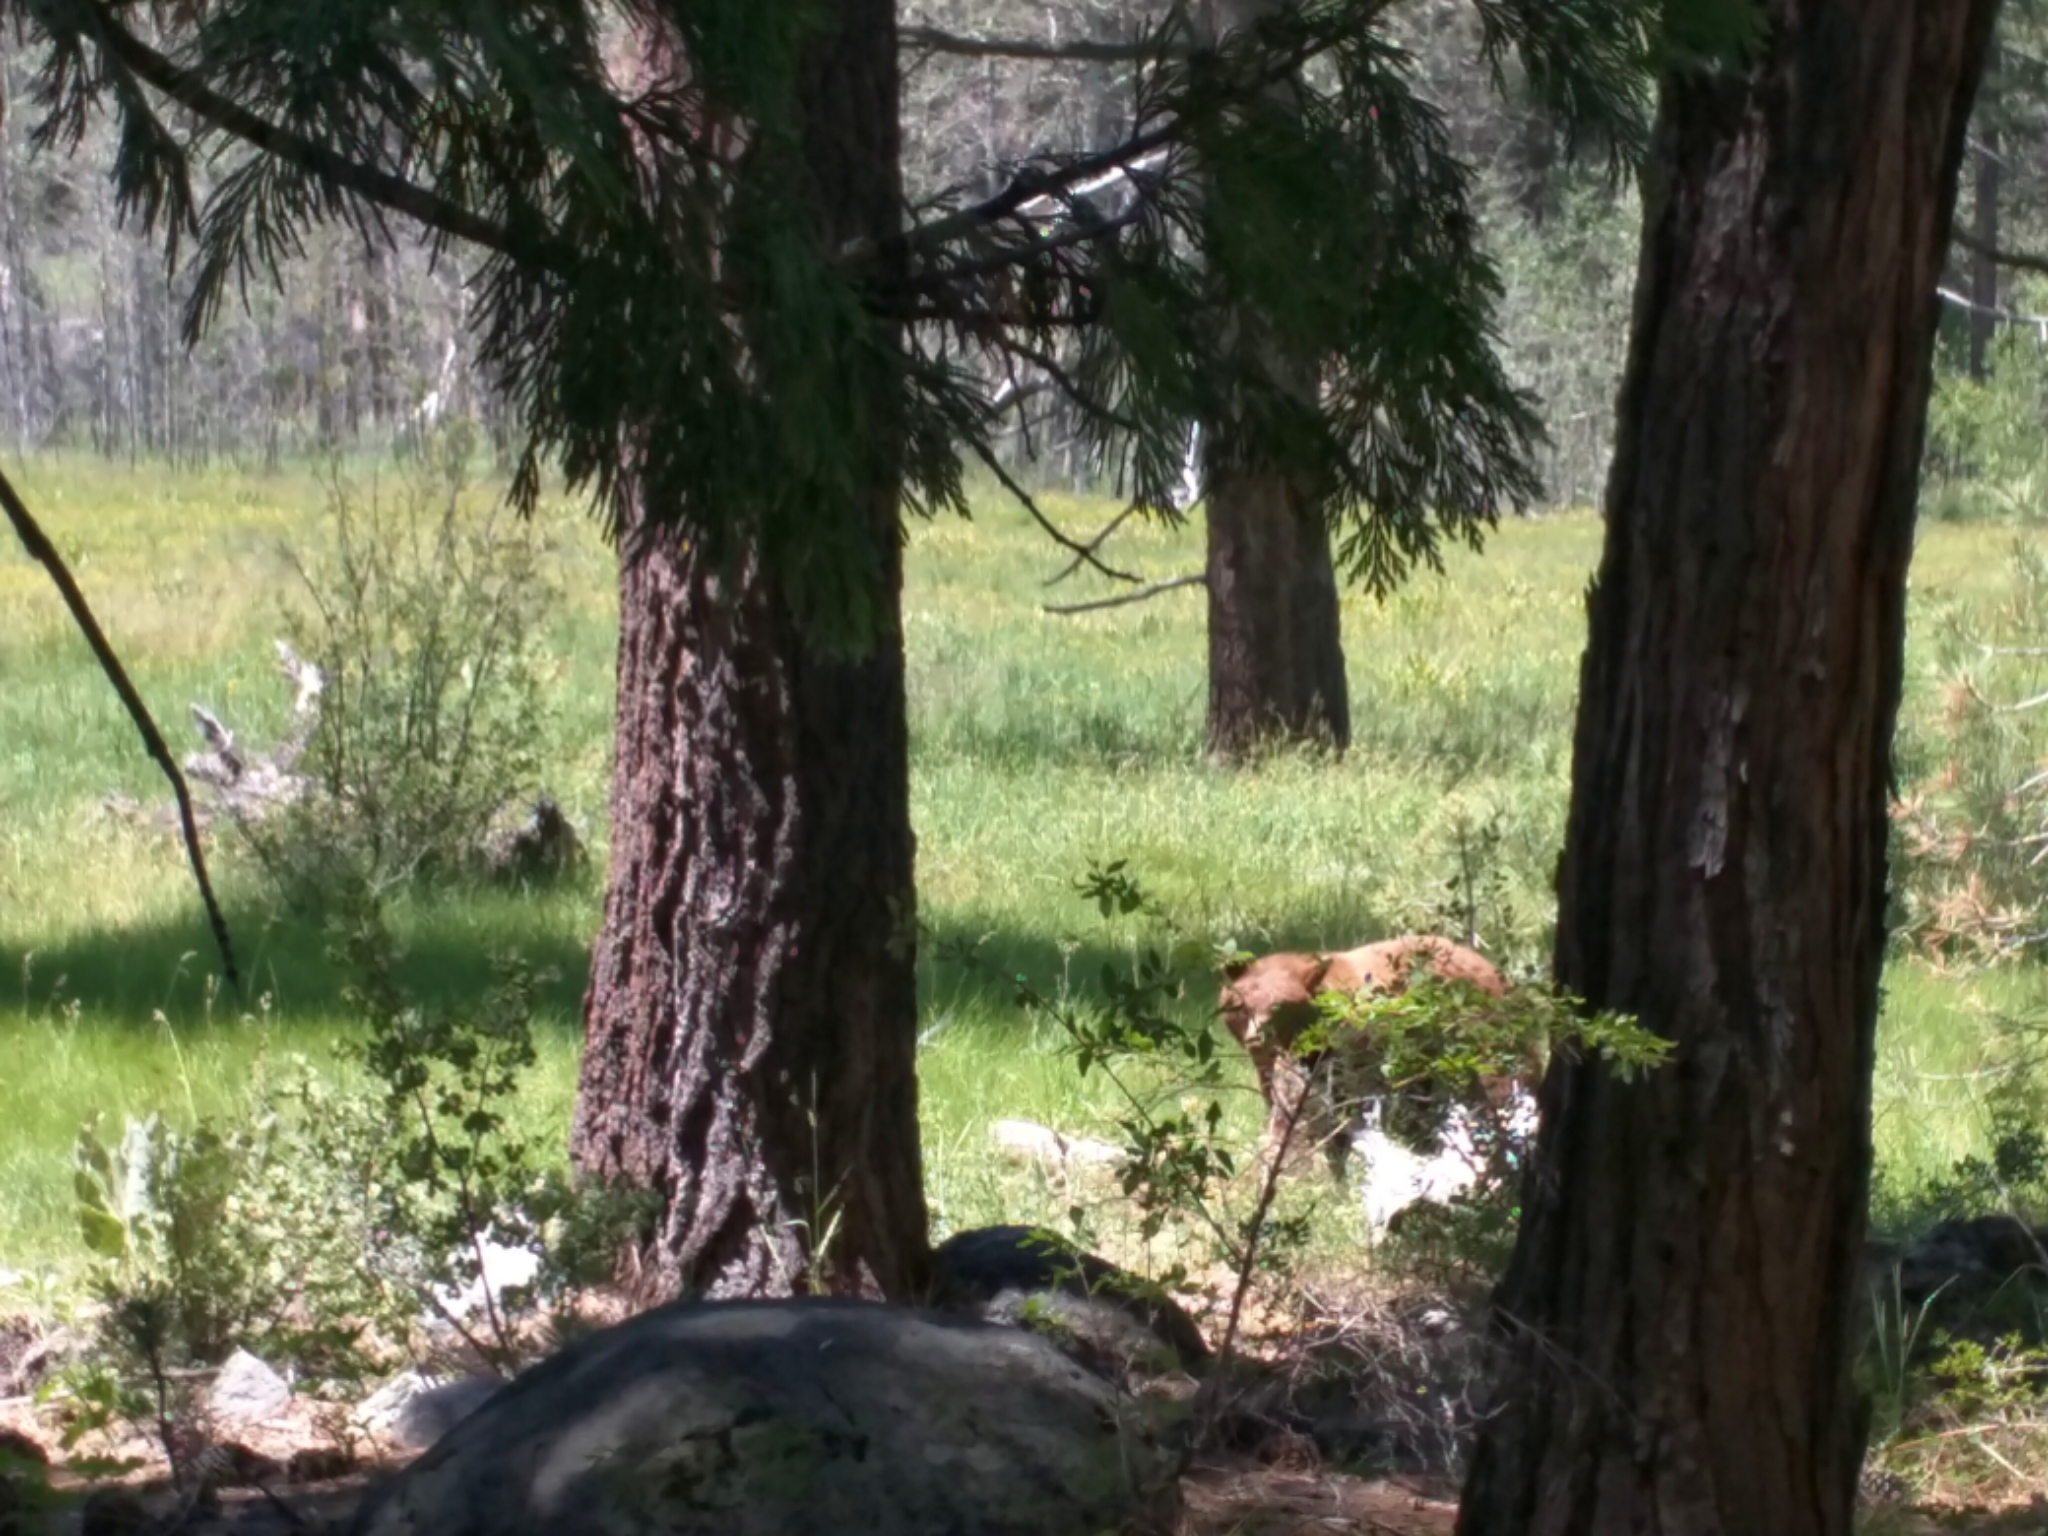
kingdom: Animalia
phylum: Chordata
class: Mammalia
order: Carnivora
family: Ursidae
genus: Ursus
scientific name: Ursus americanus
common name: American black bear
